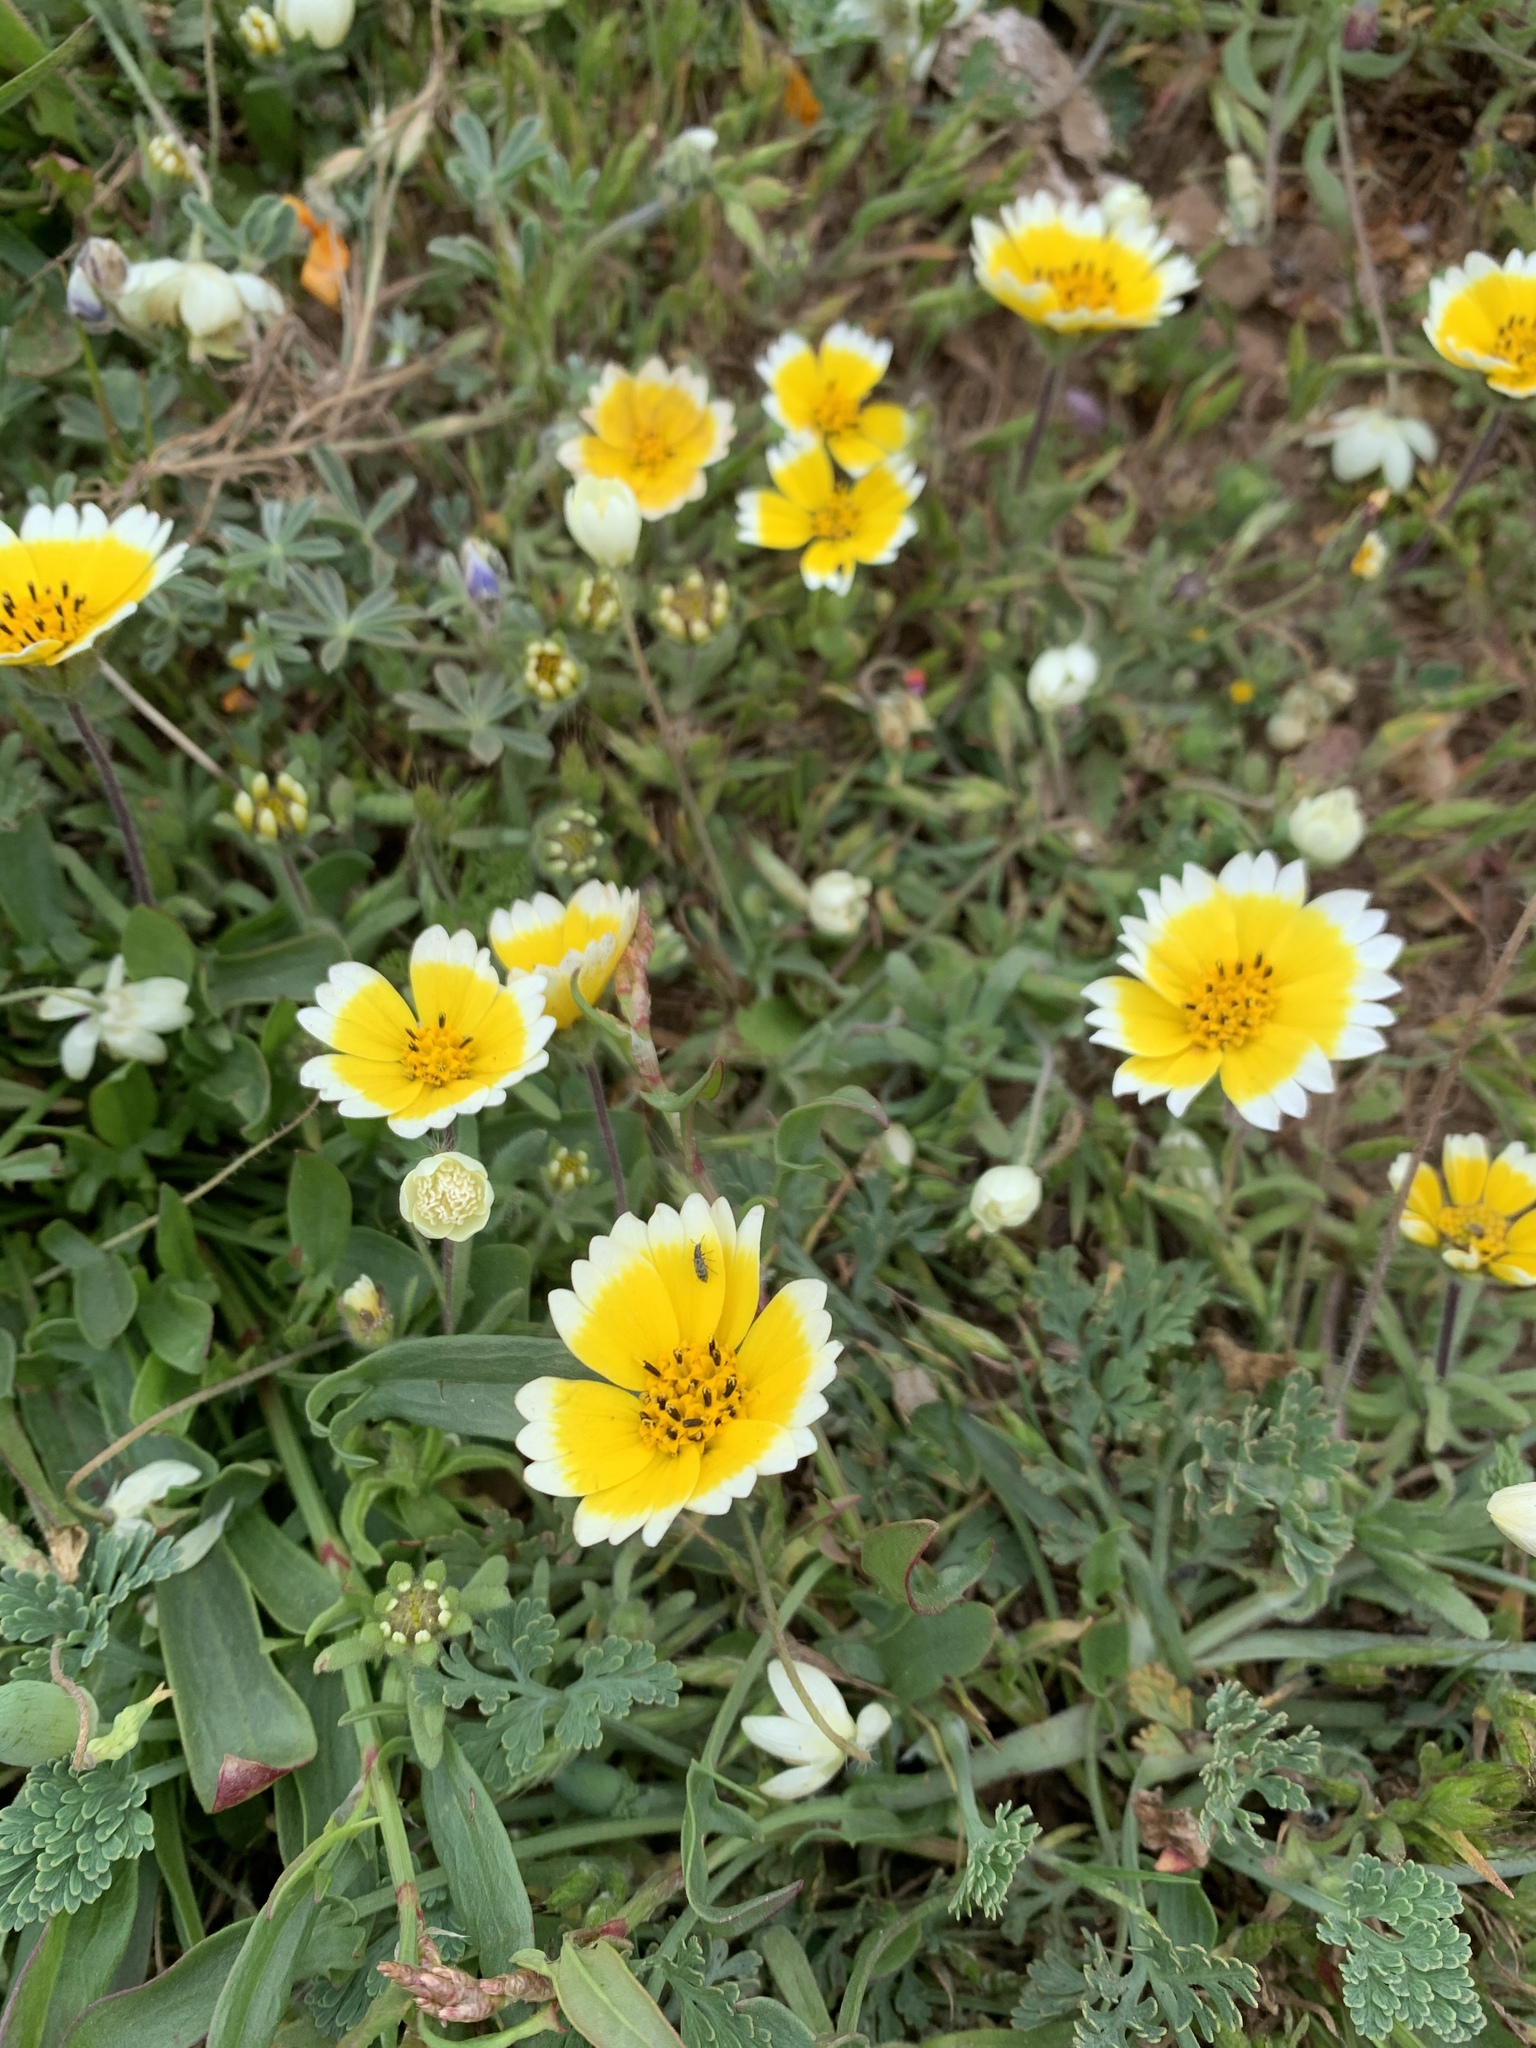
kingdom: Plantae
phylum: Tracheophyta
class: Magnoliopsida
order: Asterales
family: Asteraceae
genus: Layia
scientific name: Layia platyglossa
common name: Tidy-tips
